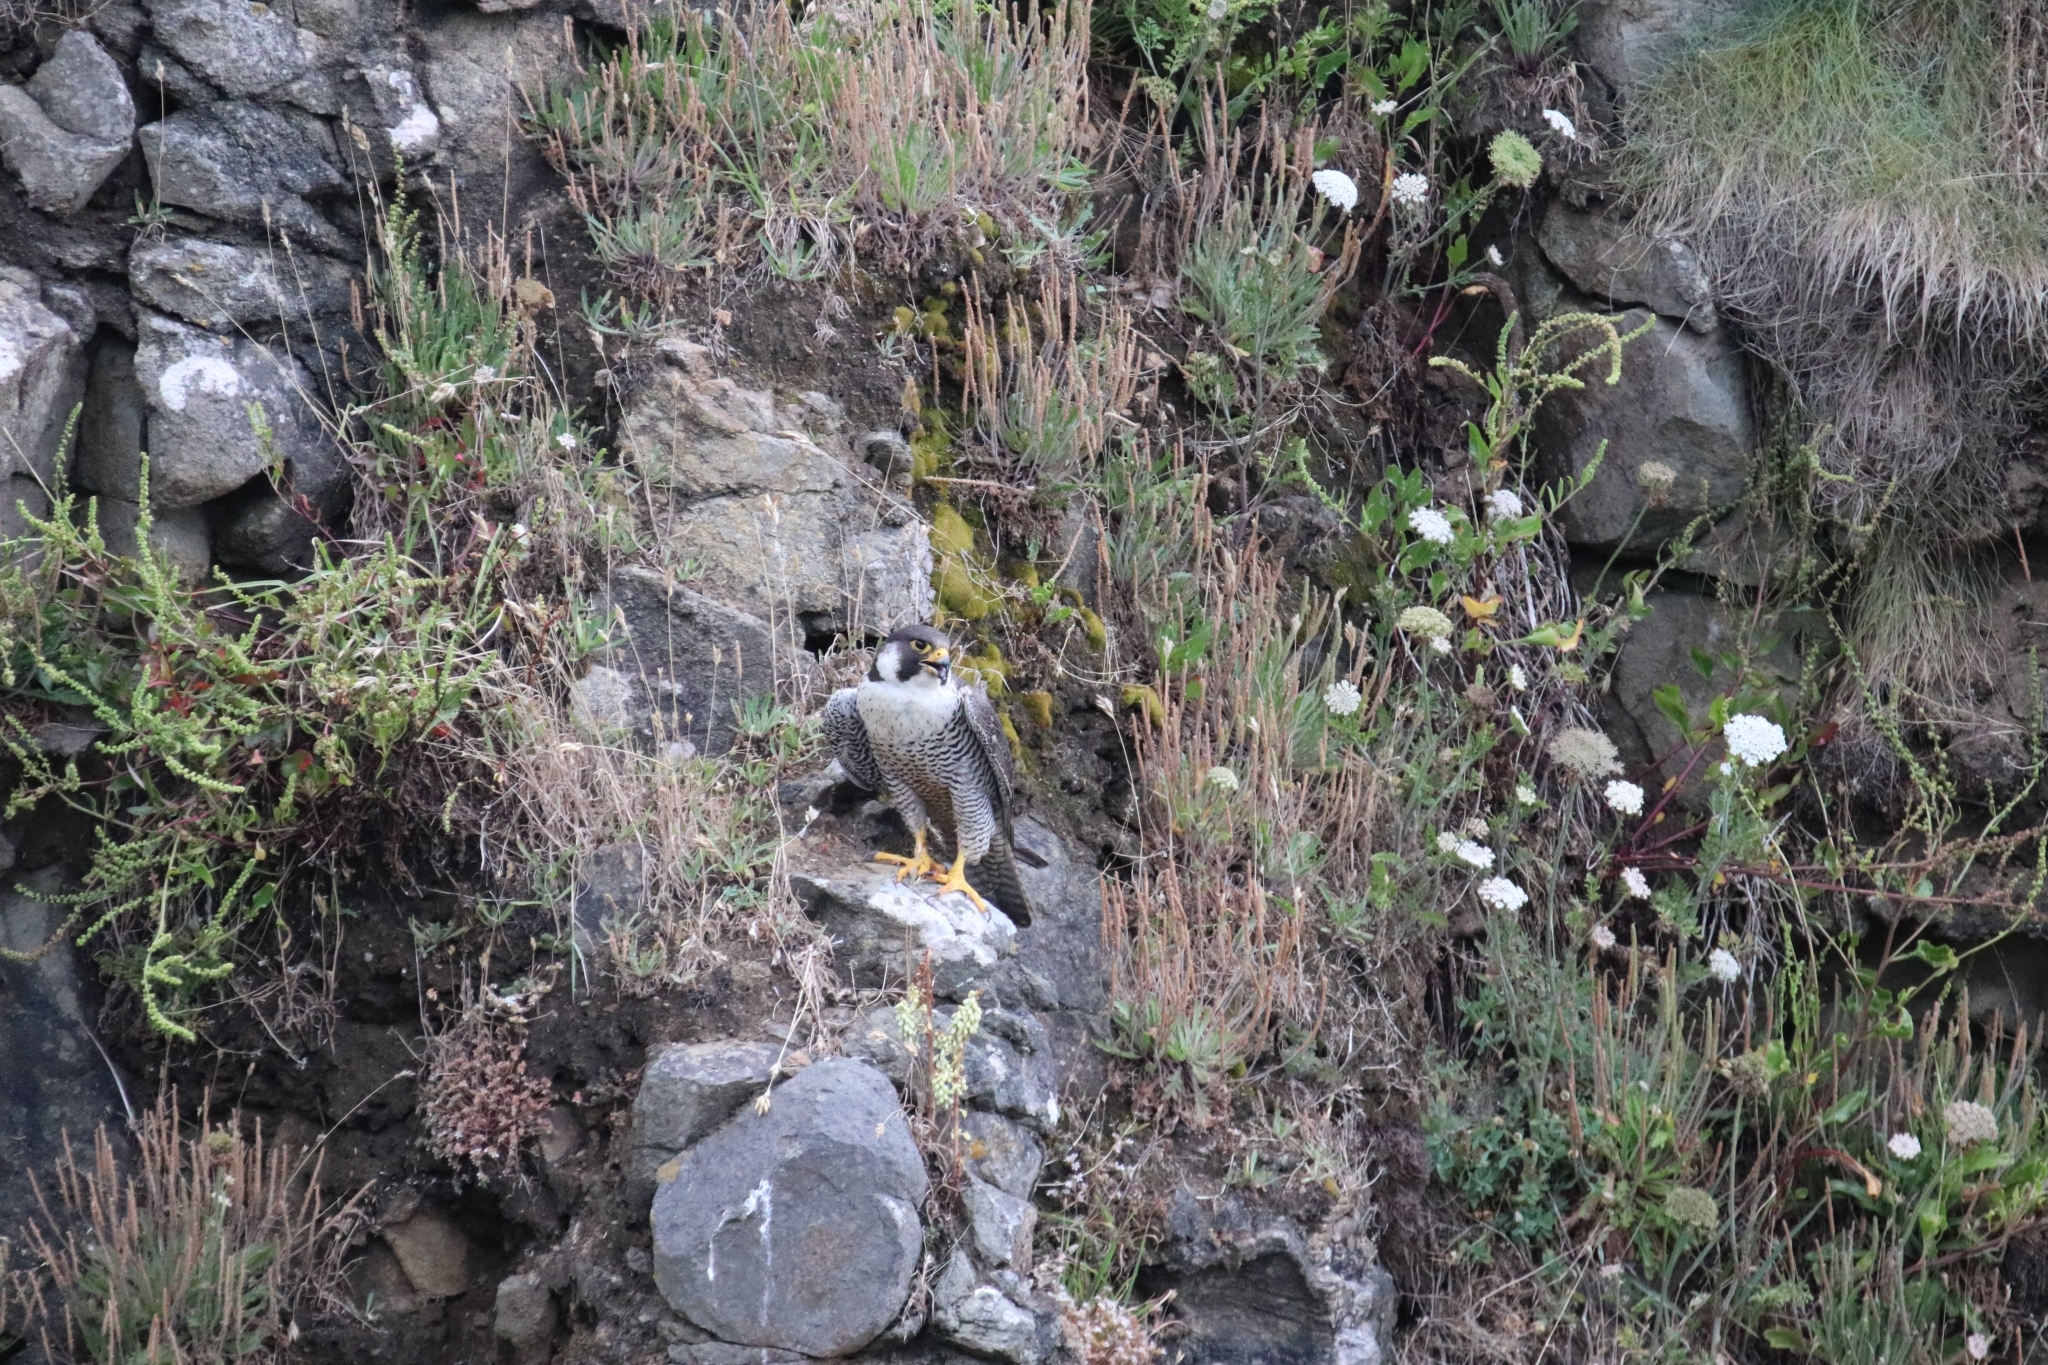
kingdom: Animalia
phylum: Chordata
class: Aves
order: Falconiformes
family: Falconidae
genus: Falco
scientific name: Falco peregrinus
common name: Peregrine falcon
